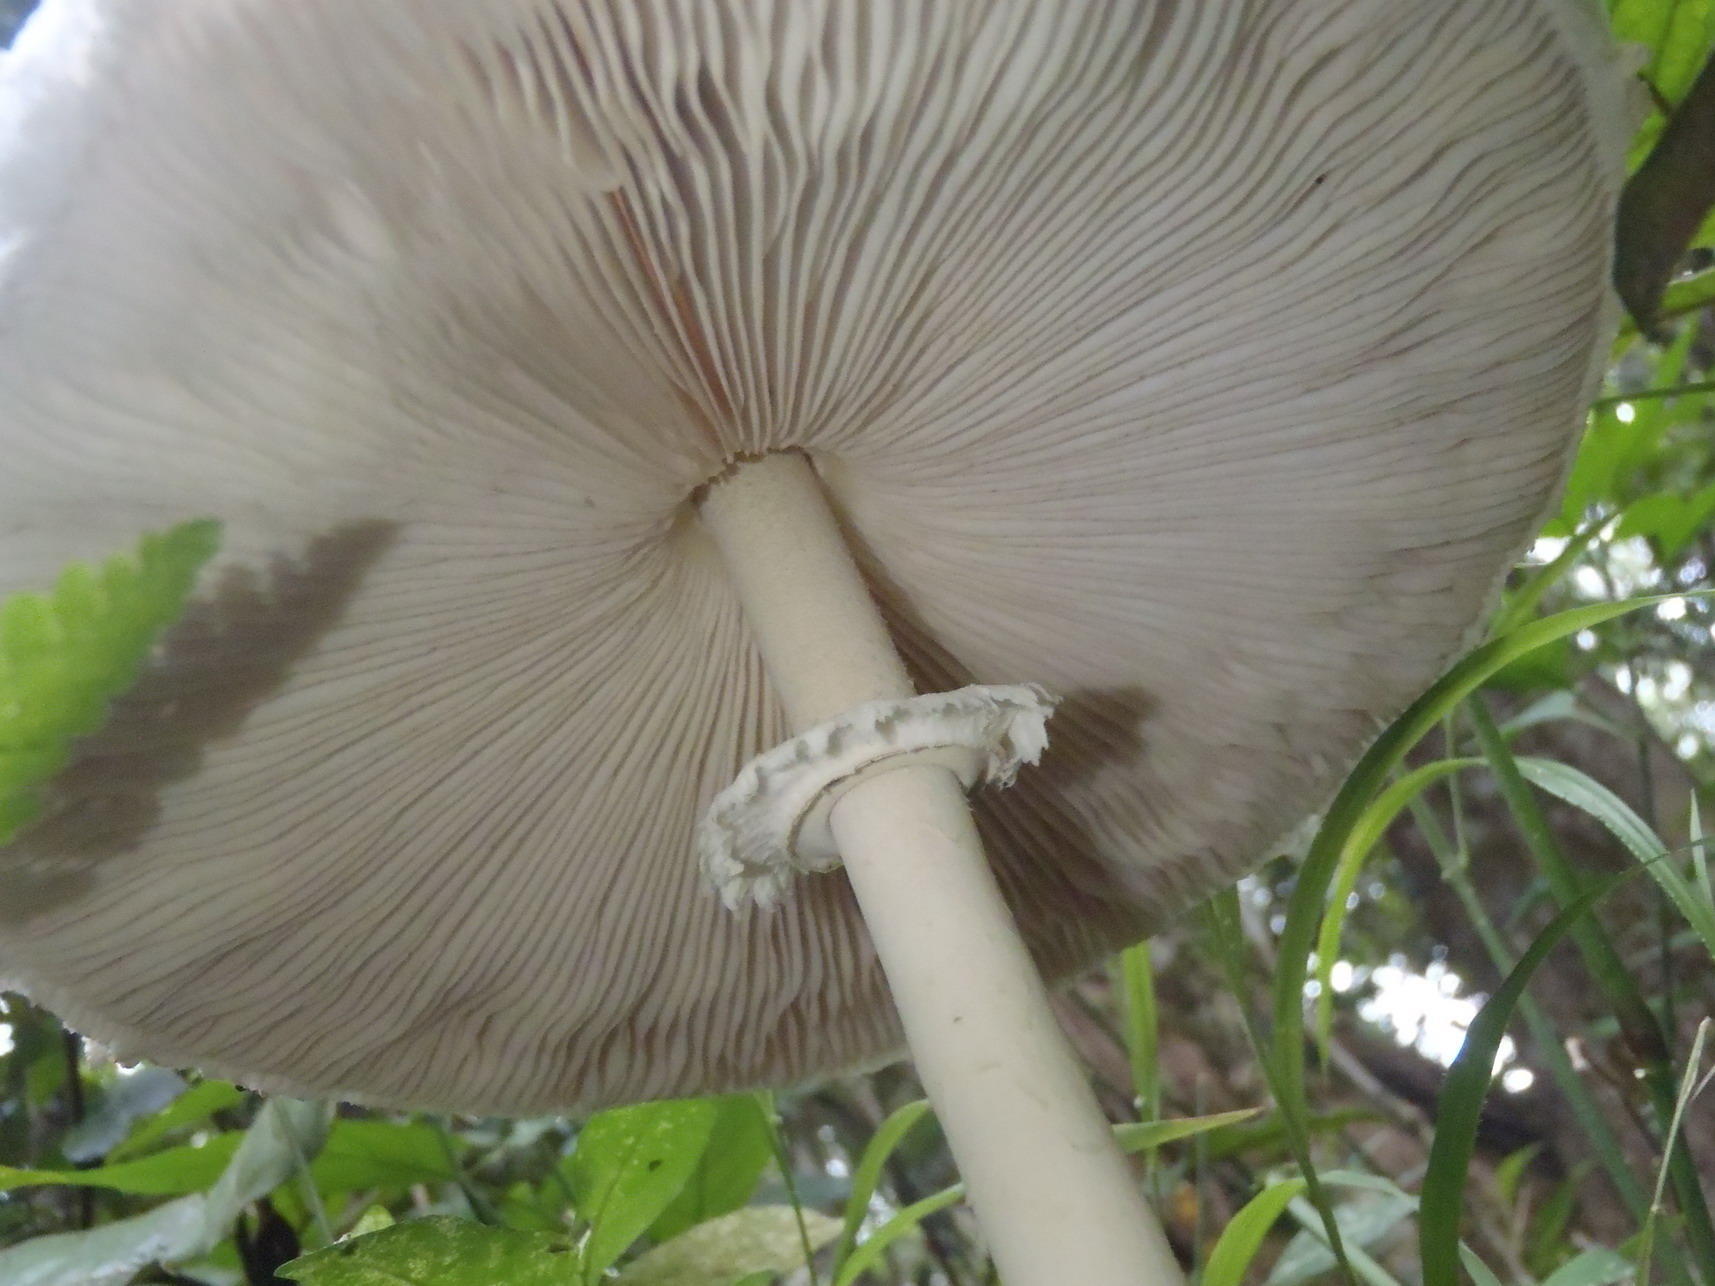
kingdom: Fungi
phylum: Basidiomycota
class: Agaricomycetes
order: Agaricales
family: Agaricaceae
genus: Macrolepiota
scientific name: Macrolepiota zeyheri
